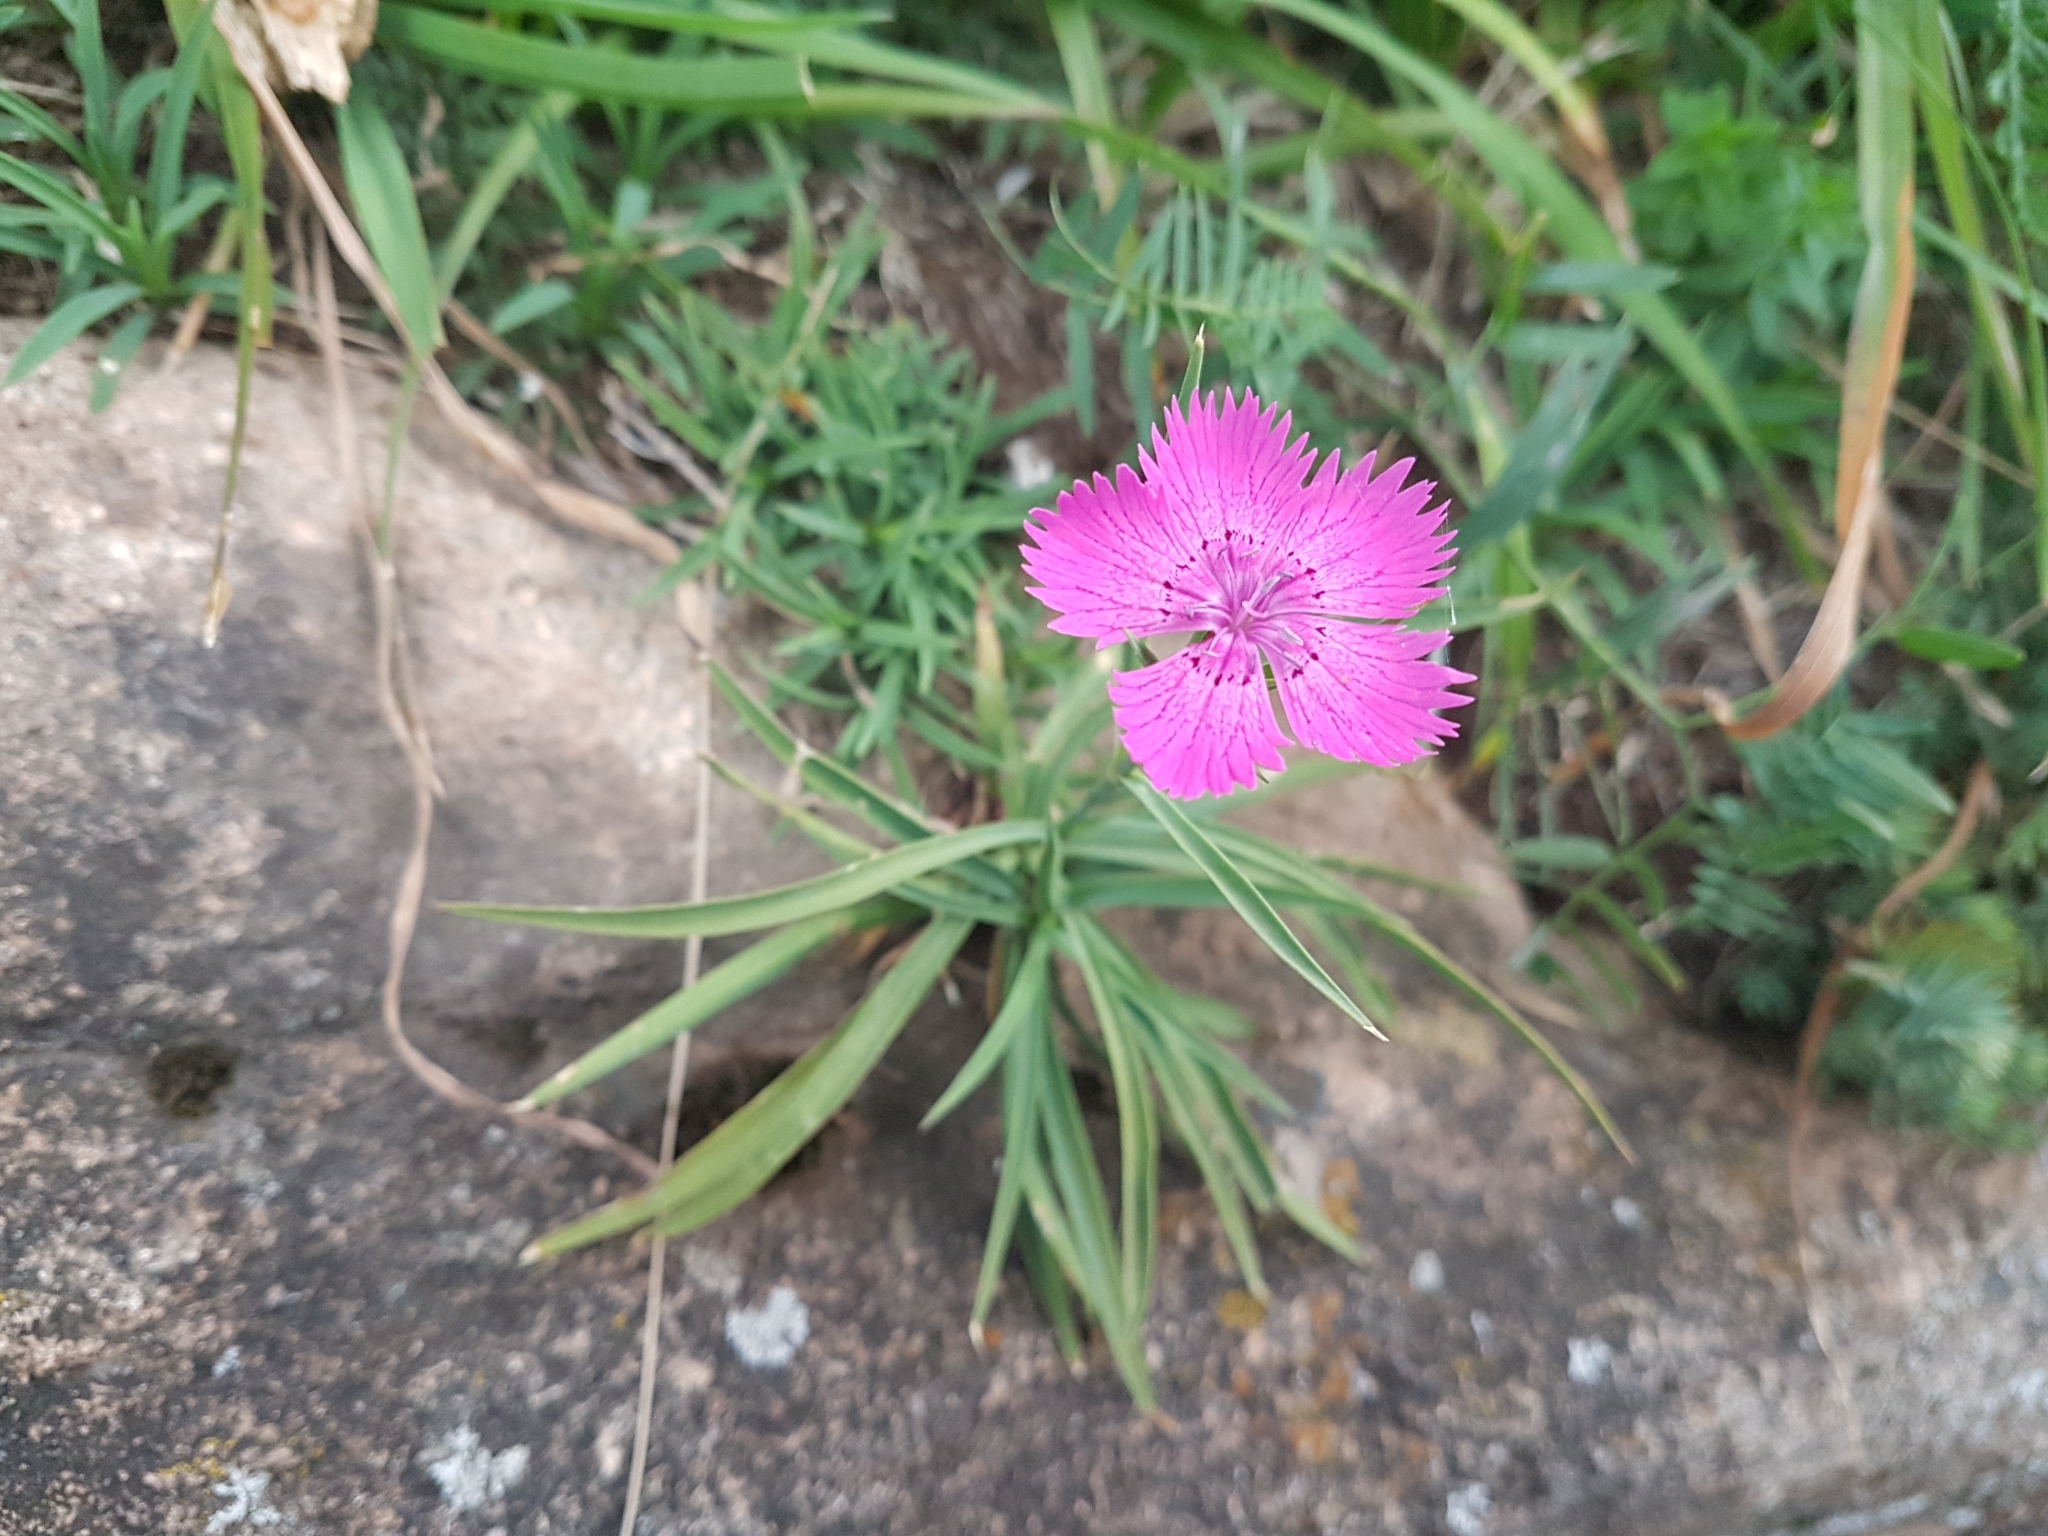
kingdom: Plantae
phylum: Tracheophyta
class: Magnoliopsida
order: Caryophyllales
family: Caryophyllaceae
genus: Dianthus
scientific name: Dianthus seguieri
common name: Ragged pink
